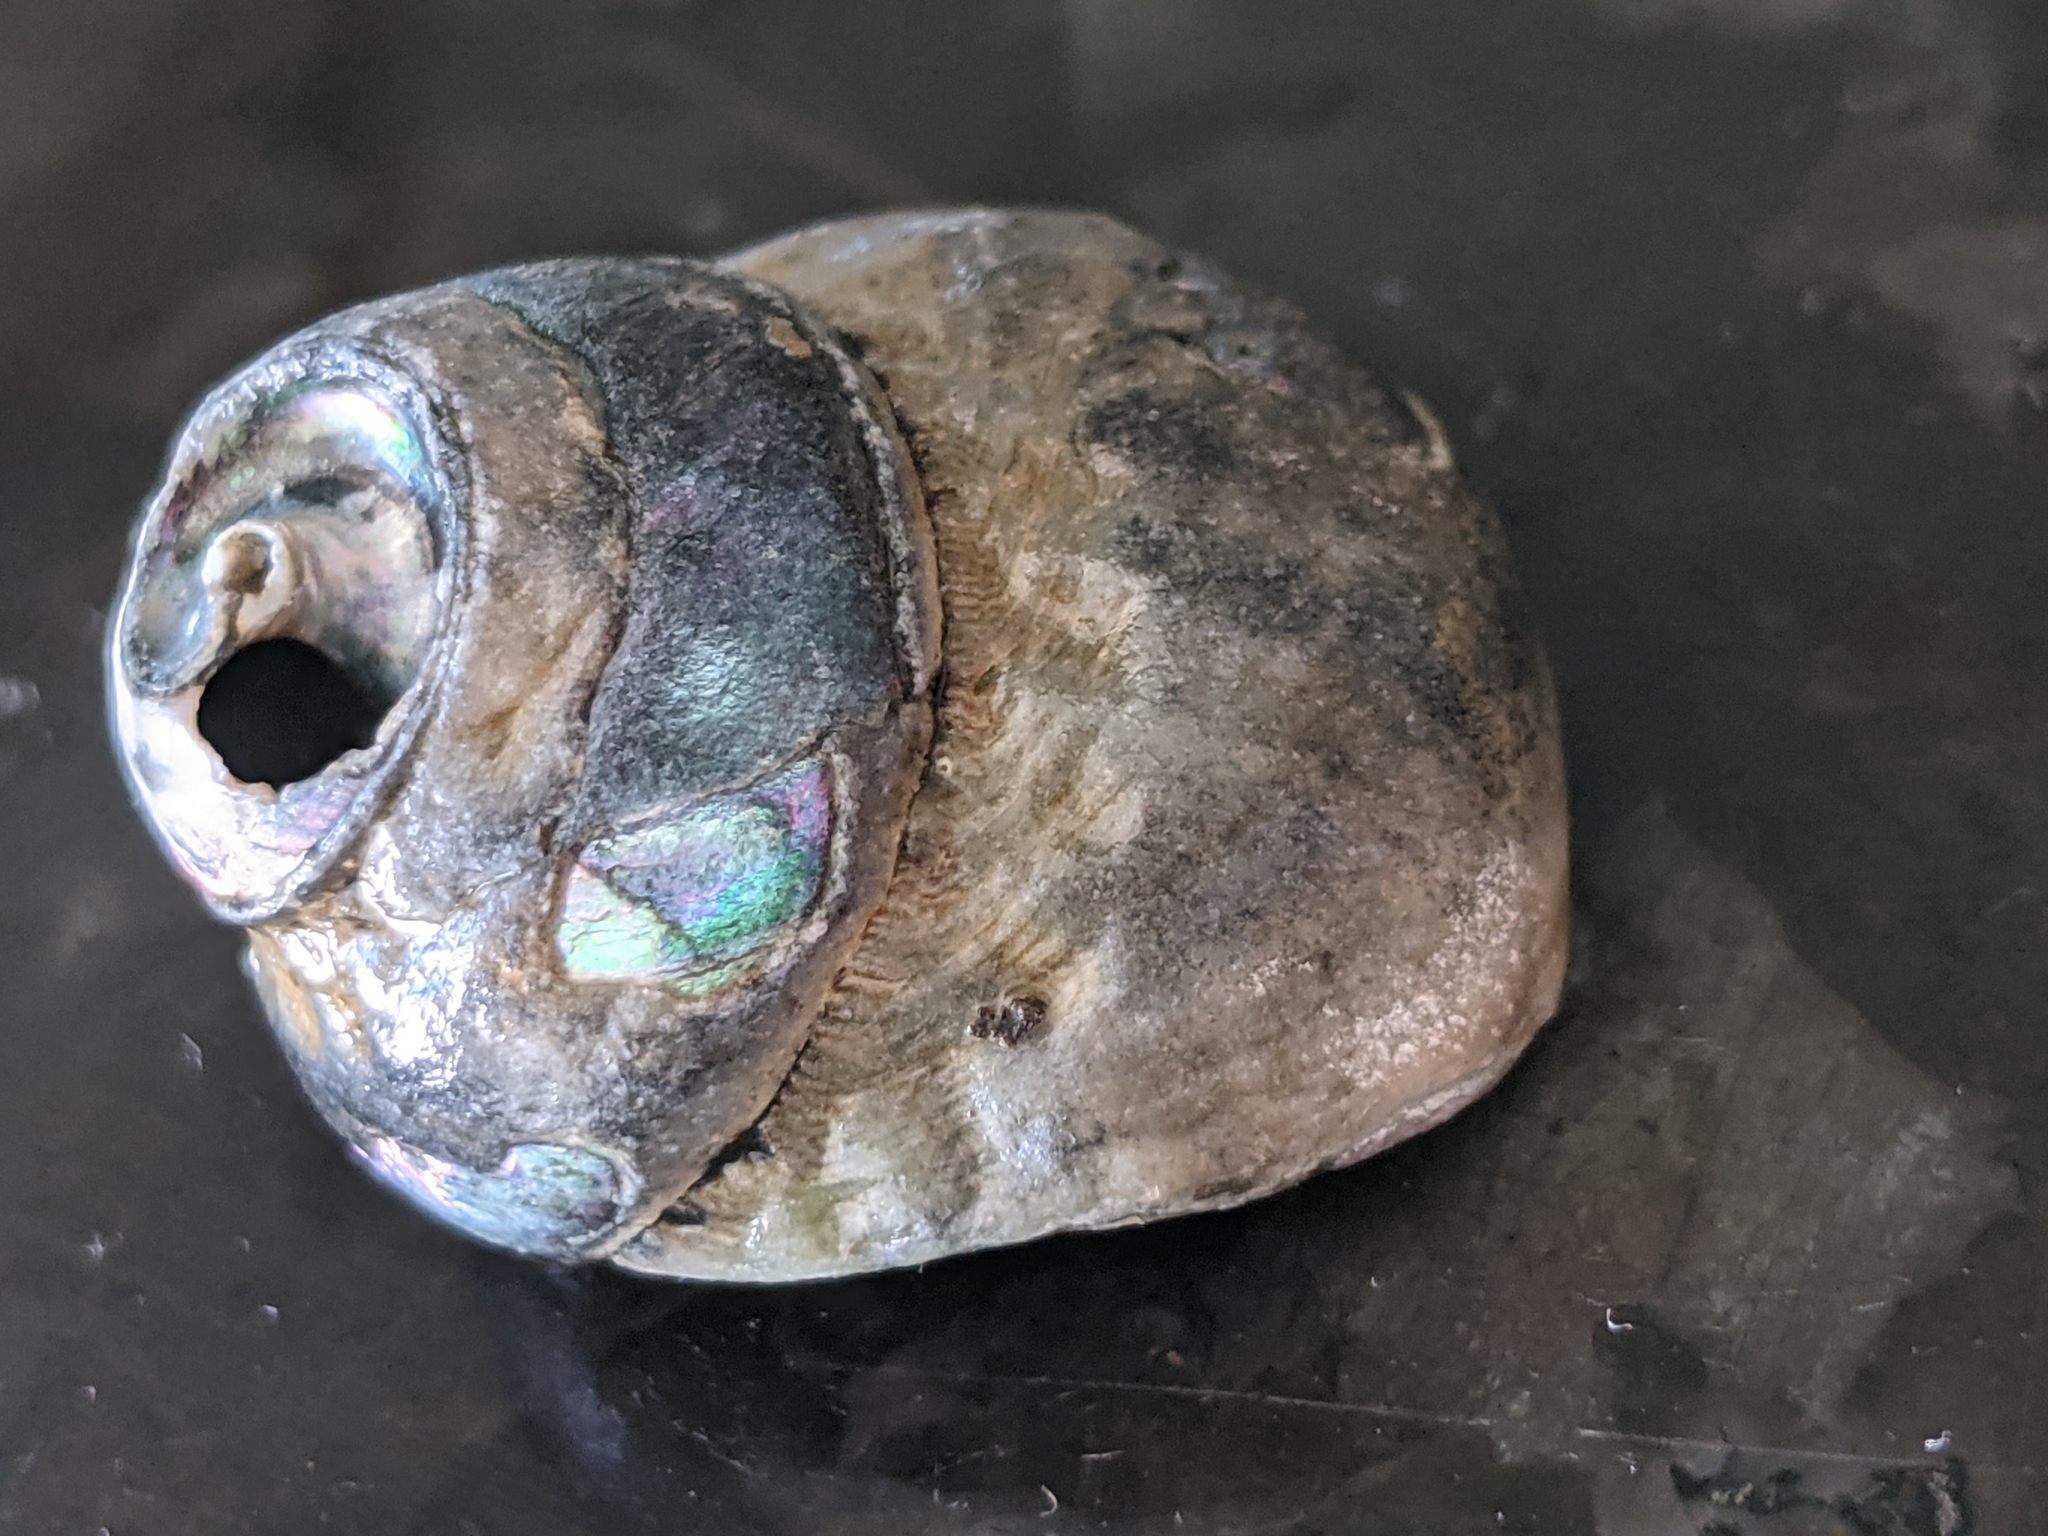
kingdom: Animalia
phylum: Mollusca
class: Gastropoda
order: Trochida
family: Tegulidae
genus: Tegula
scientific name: Tegula aureotincta
